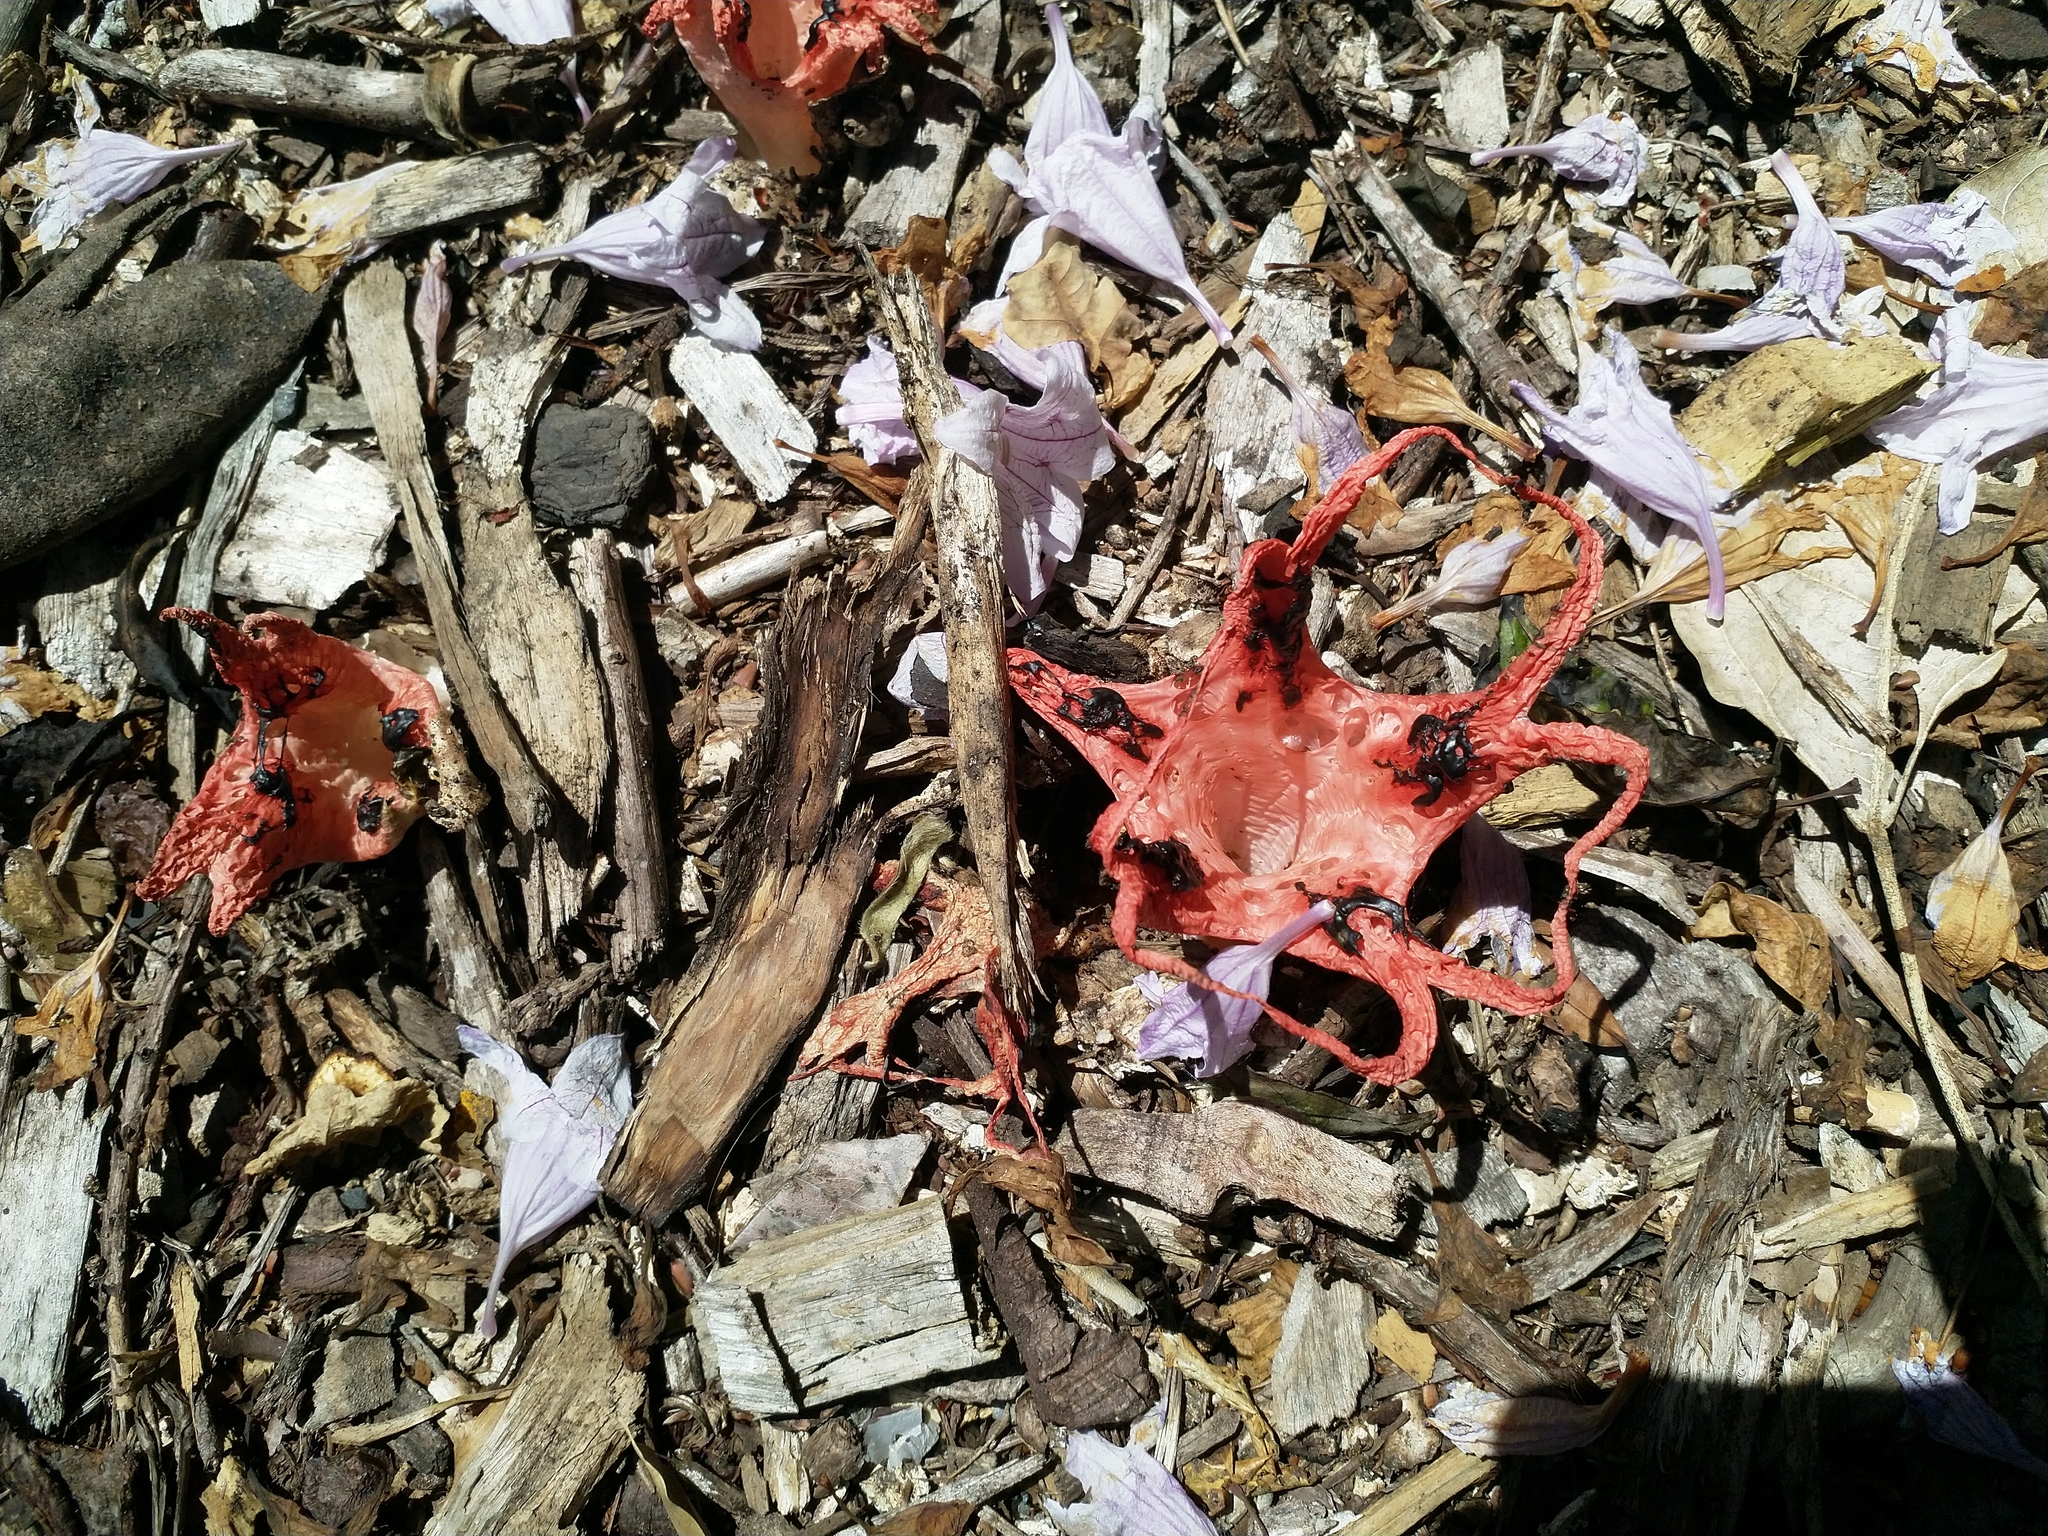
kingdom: Fungi
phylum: Basidiomycota
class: Agaricomycetes
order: Phallales
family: Phallaceae
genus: Clathrus
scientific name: Clathrus archeri
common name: Devil's fingers
